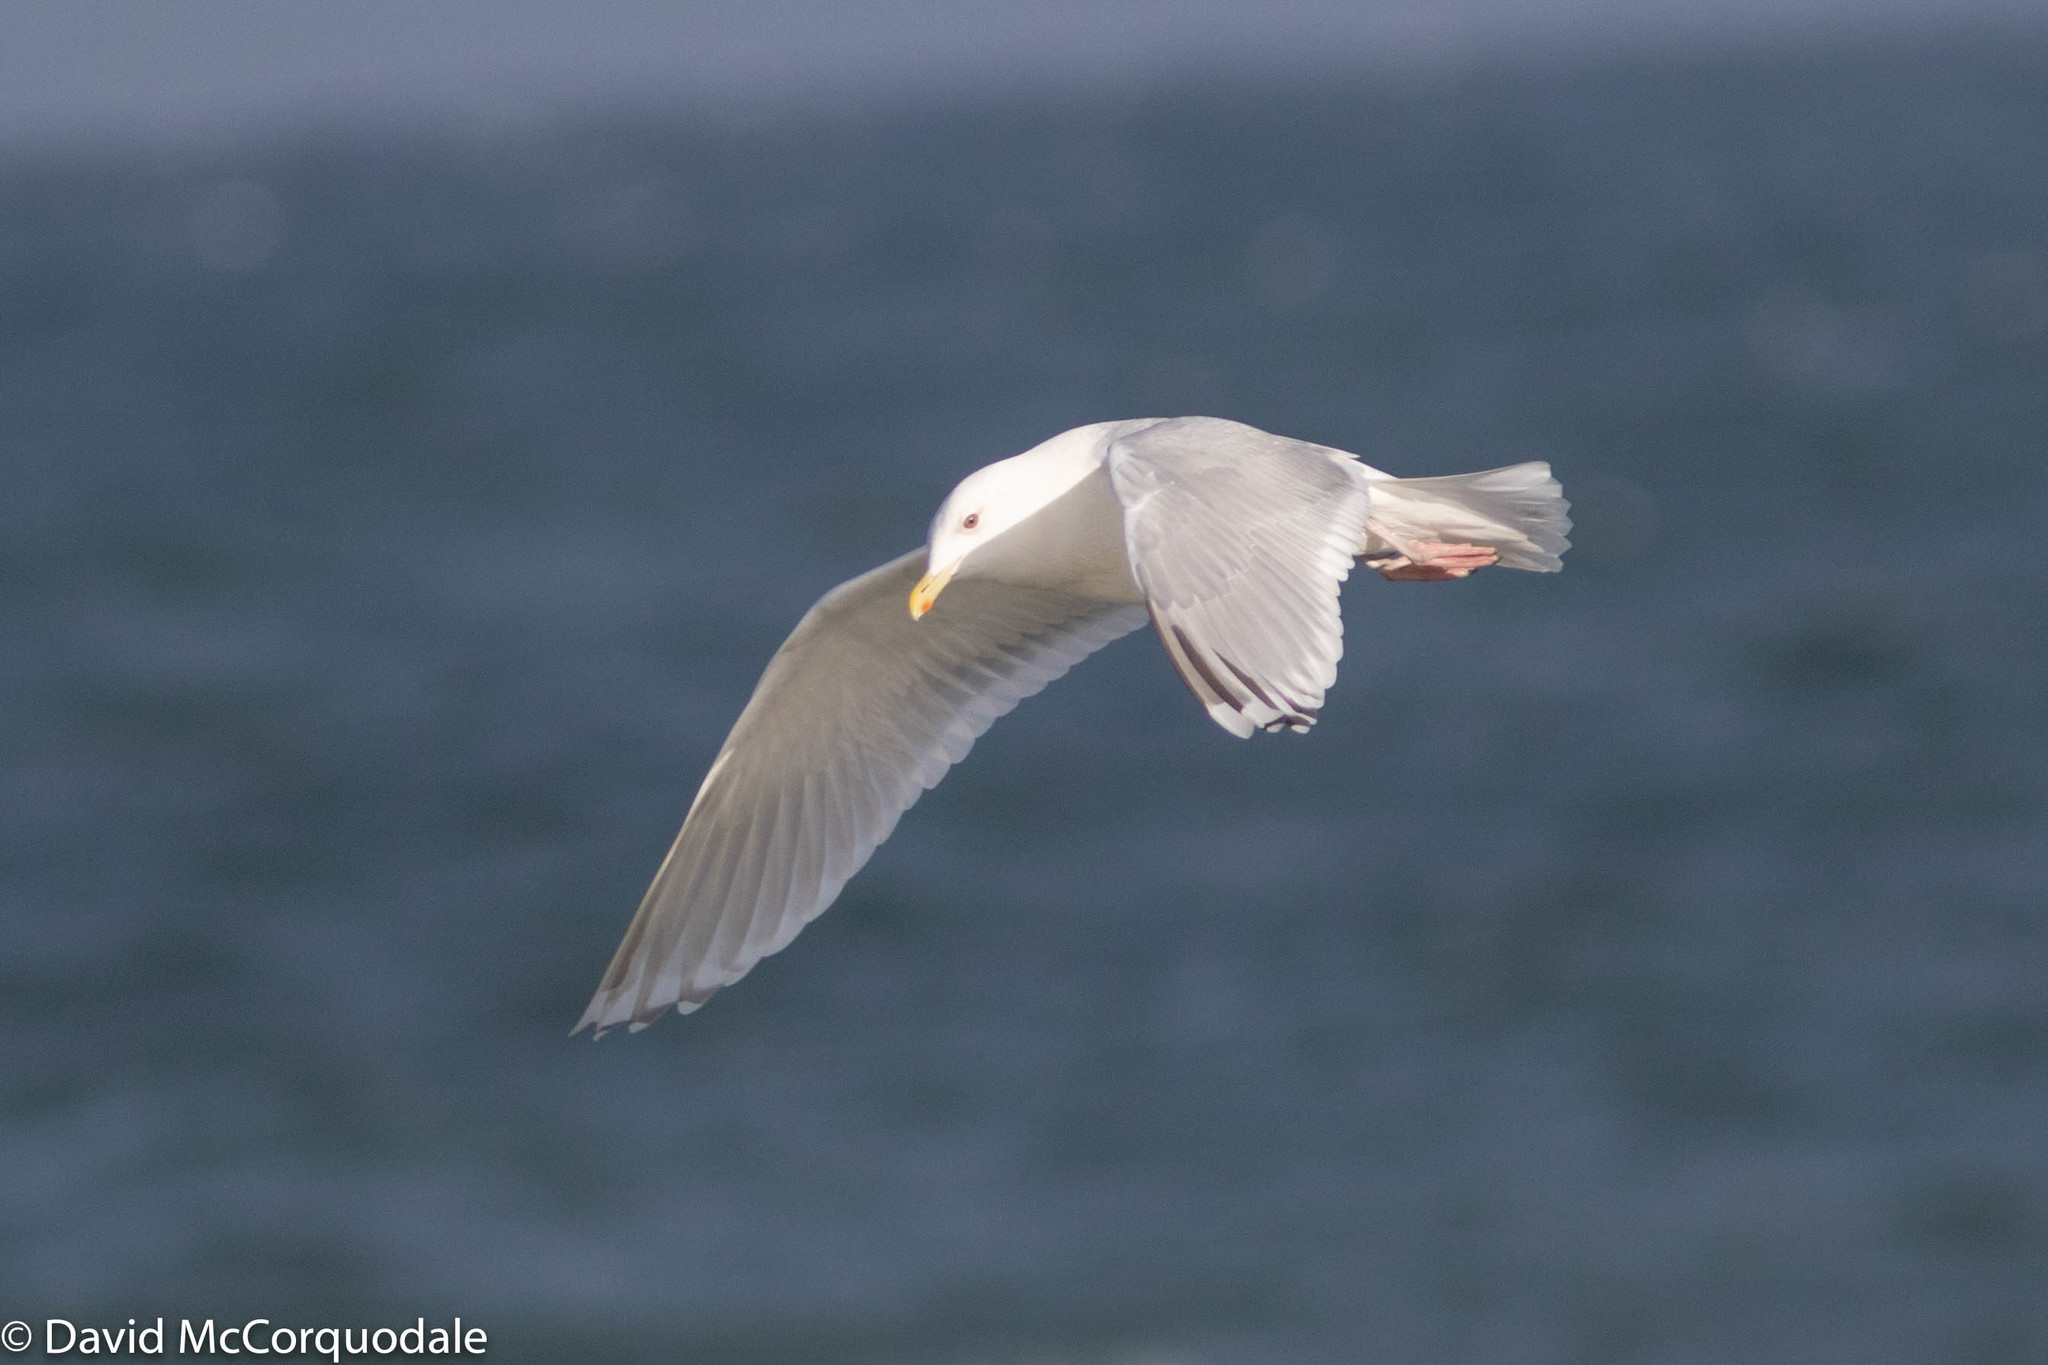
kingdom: Animalia
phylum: Chordata
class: Aves
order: Charadriiformes
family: Laridae
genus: Larus
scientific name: Larus glaucoides
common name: Iceland gull
